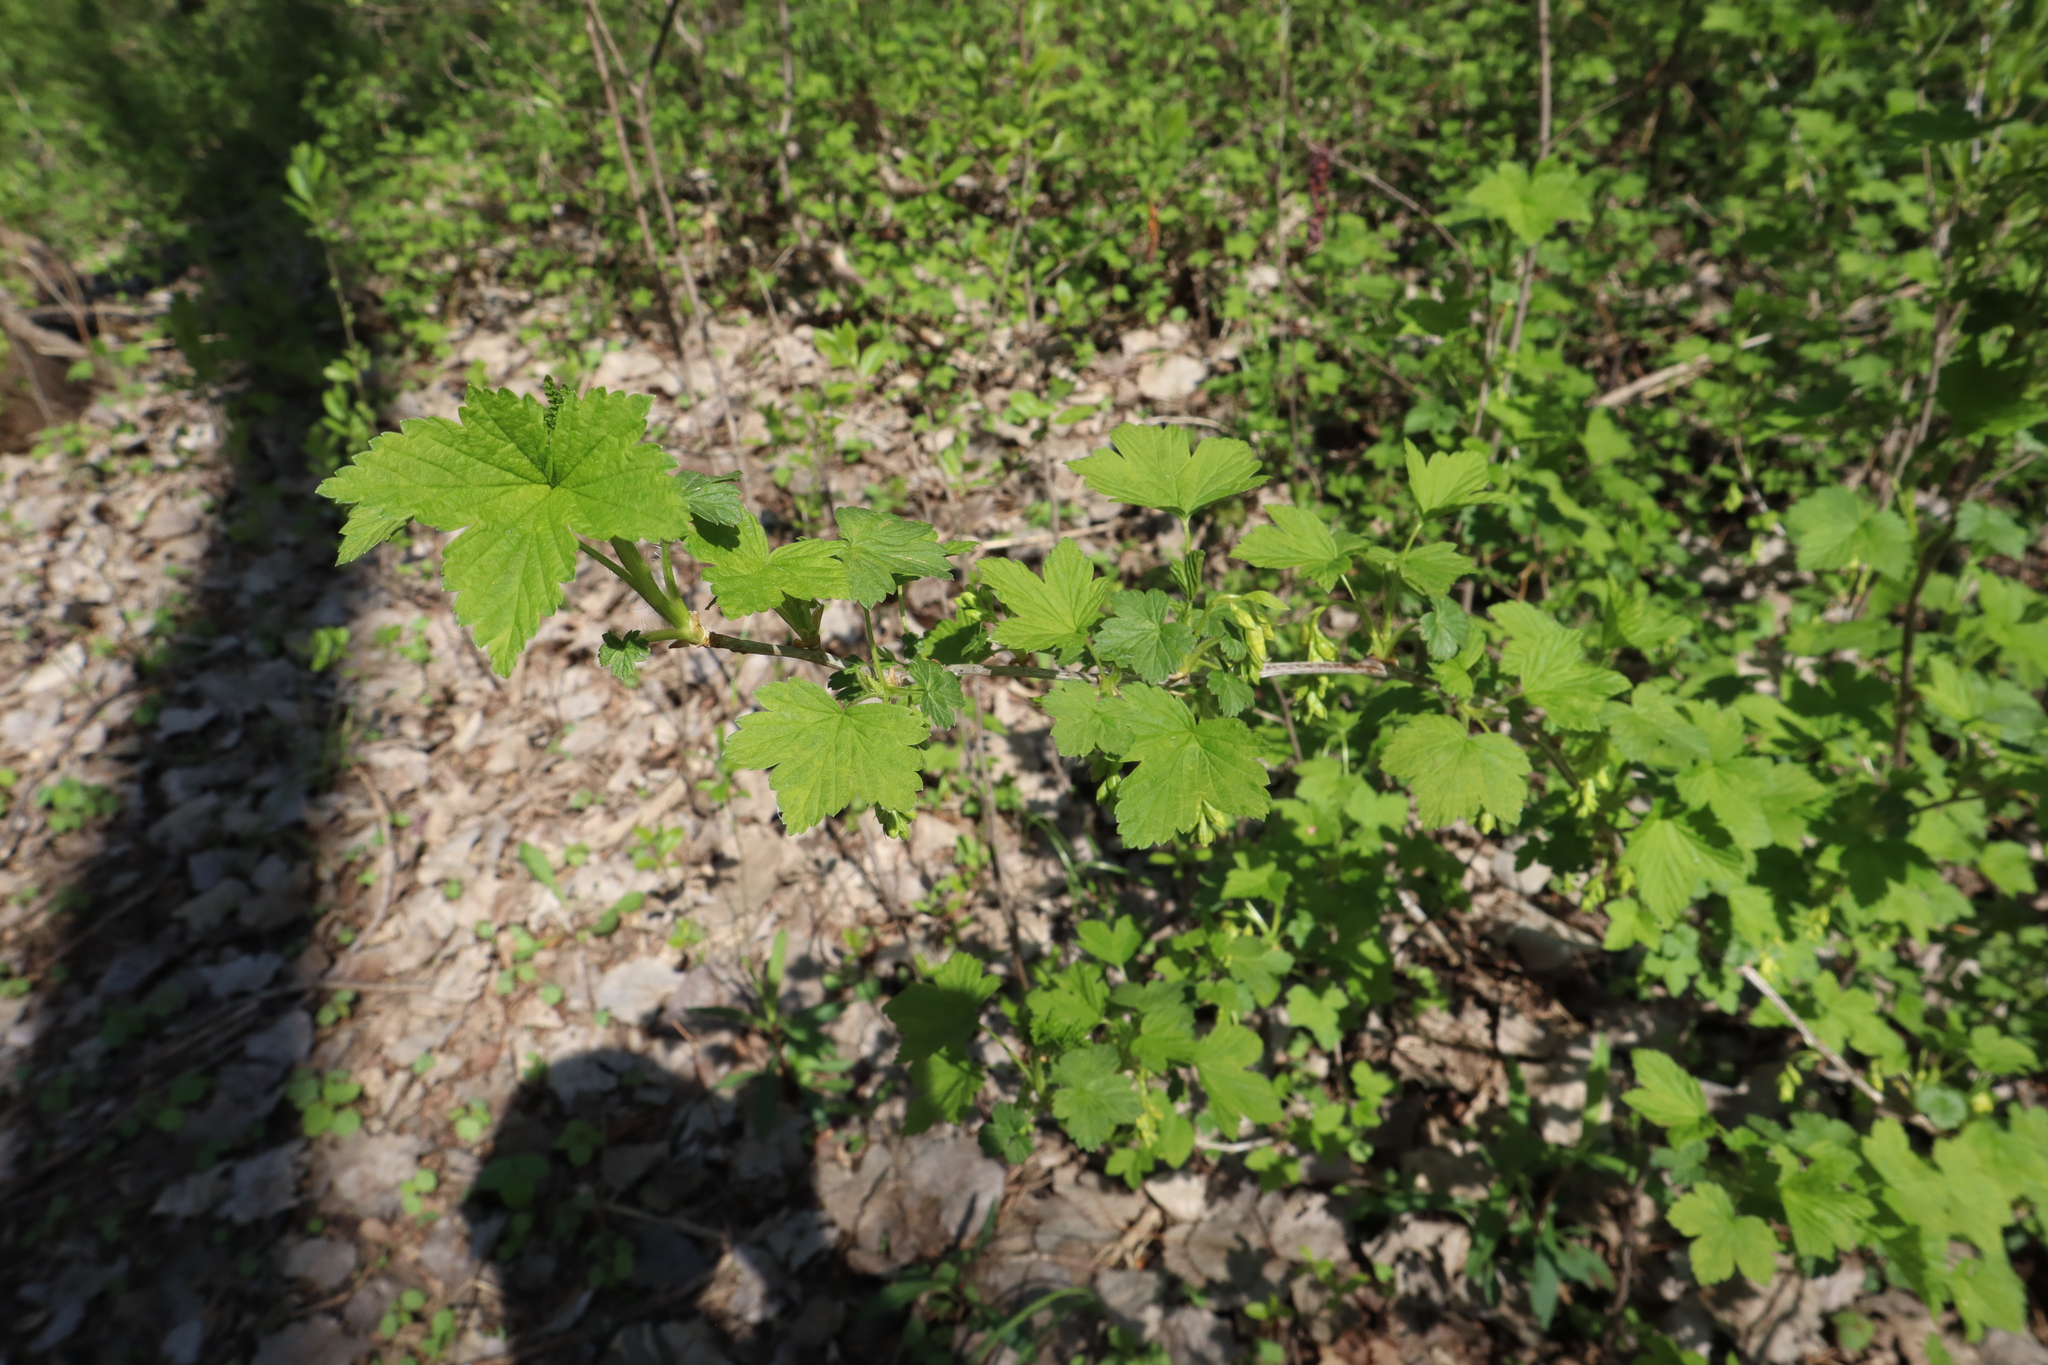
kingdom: Plantae
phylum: Tracheophyta
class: Magnoliopsida
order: Saxifragales
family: Grossulariaceae
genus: Ribes
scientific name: Ribes americanum
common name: American black currant
